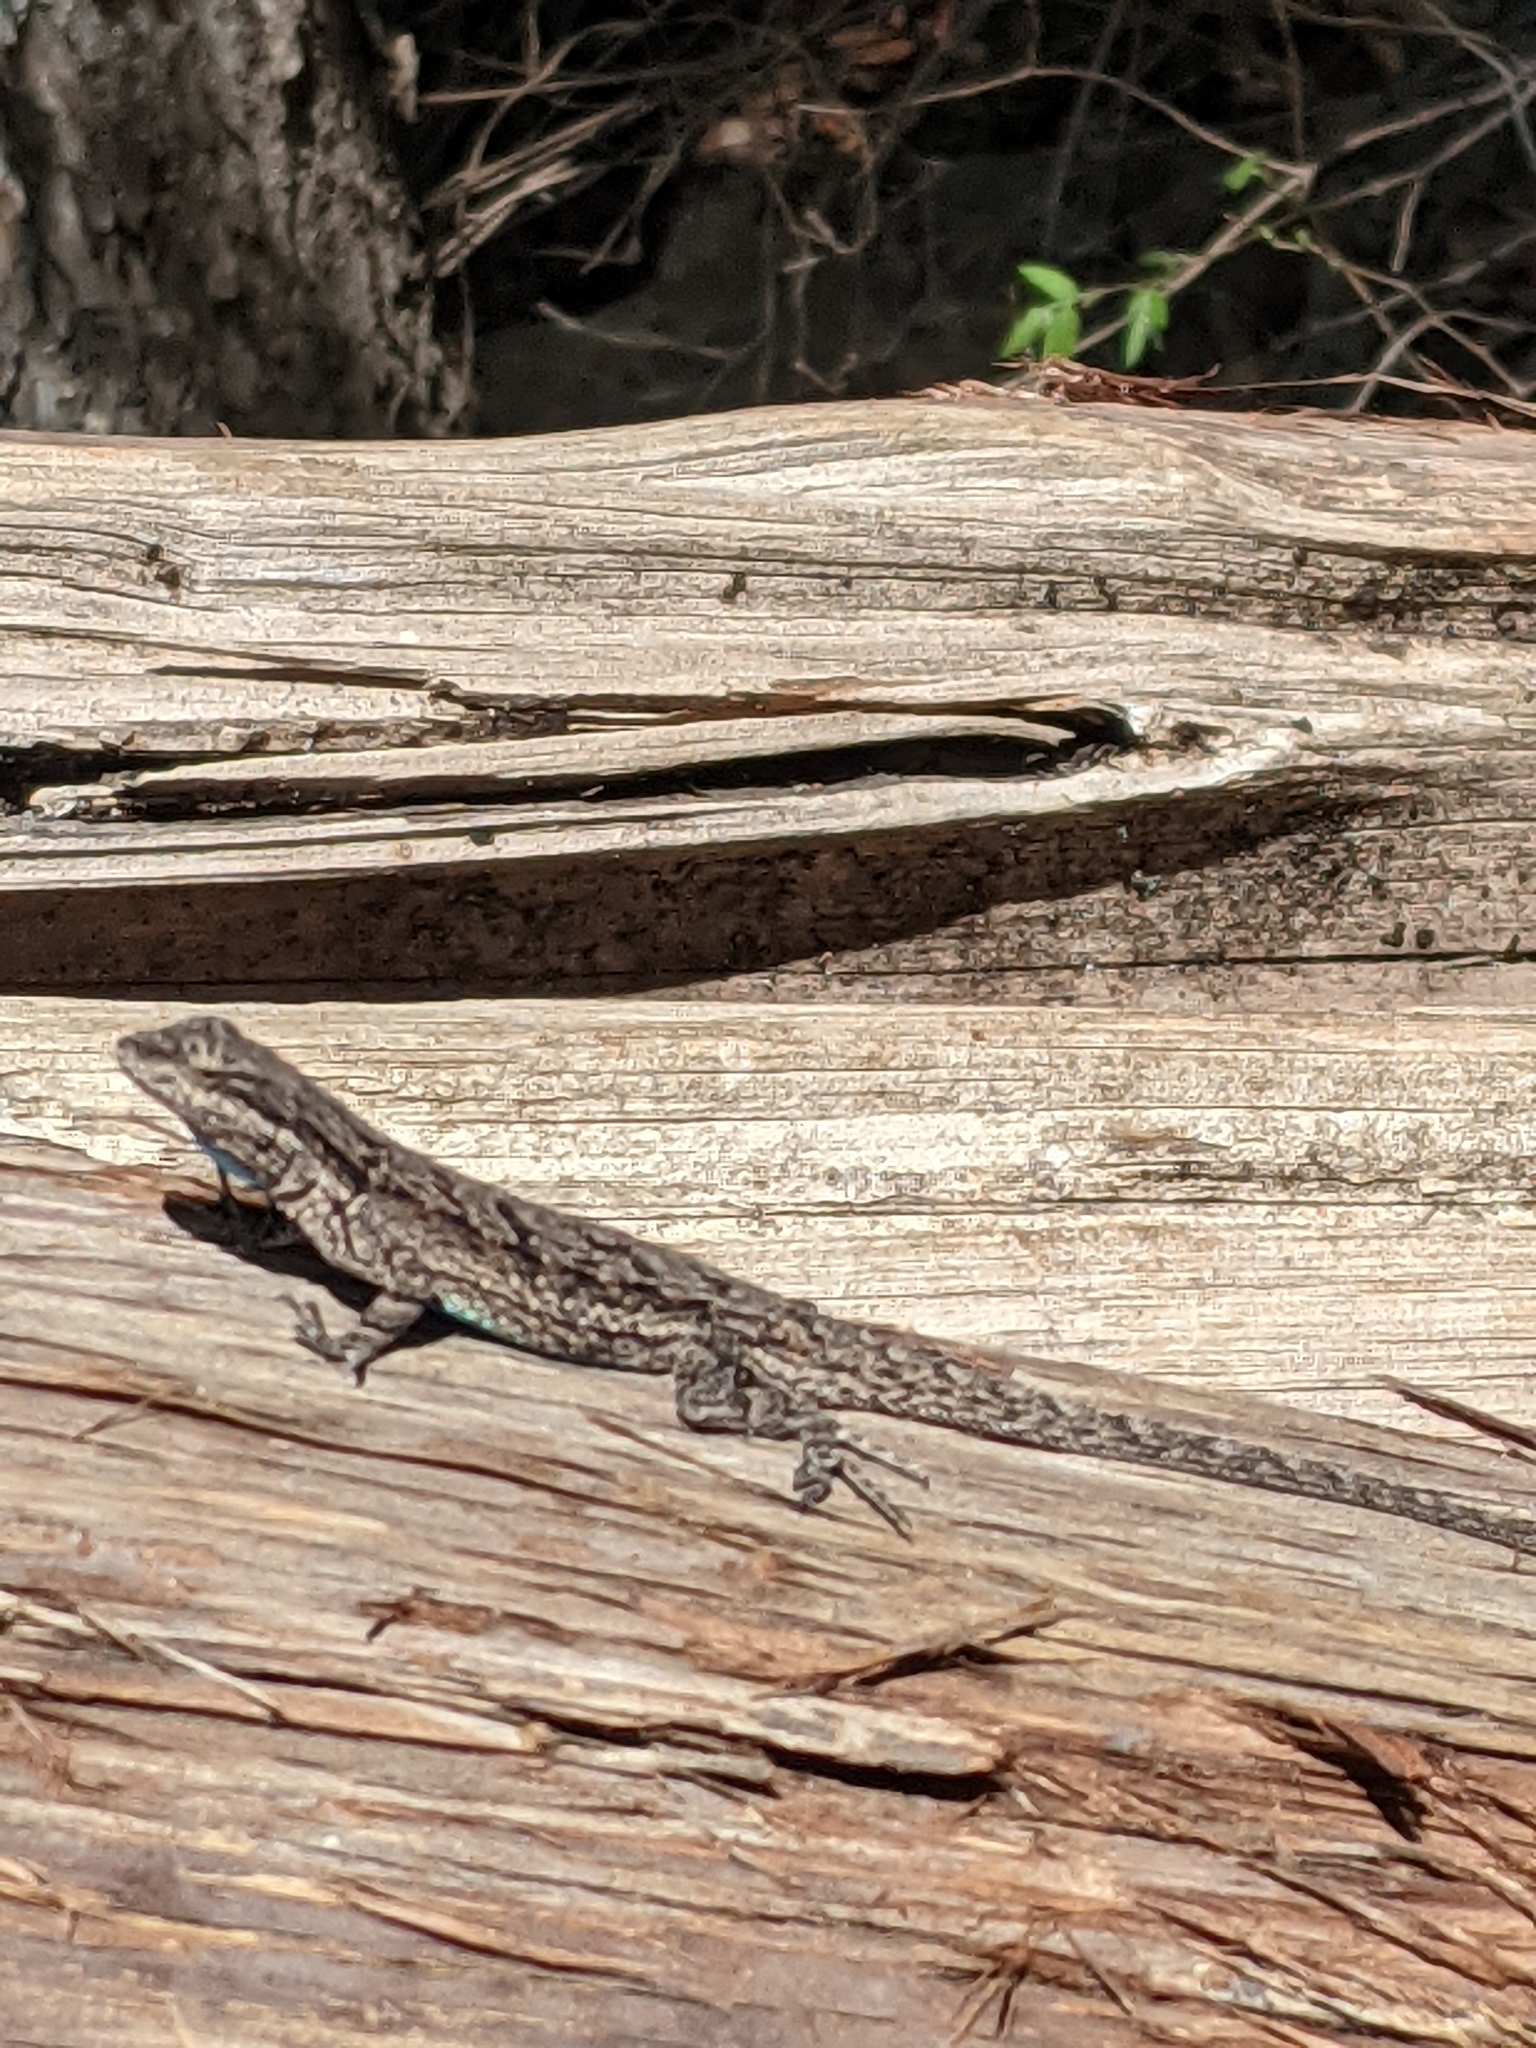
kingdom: Animalia
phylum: Chordata
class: Squamata
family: Phrynosomatidae
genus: Urosaurus
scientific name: Urosaurus ornatus
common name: Ornate tree lizard
